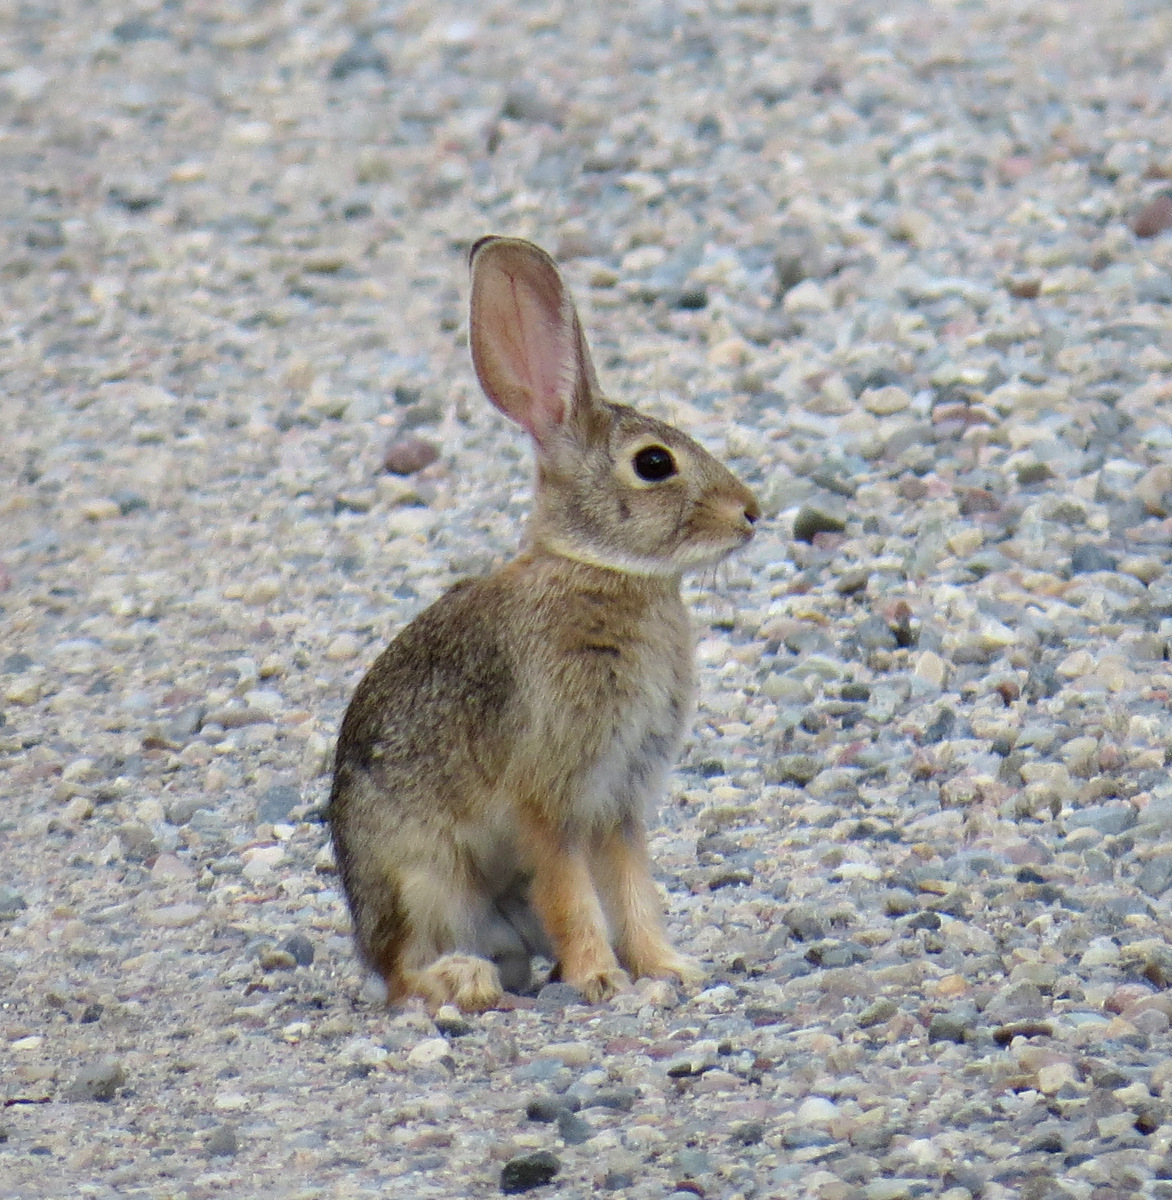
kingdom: Animalia
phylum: Chordata
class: Mammalia
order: Lagomorpha
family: Leporidae
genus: Sylvilagus
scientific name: Sylvilagus audubonii
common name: Desert cottontail
